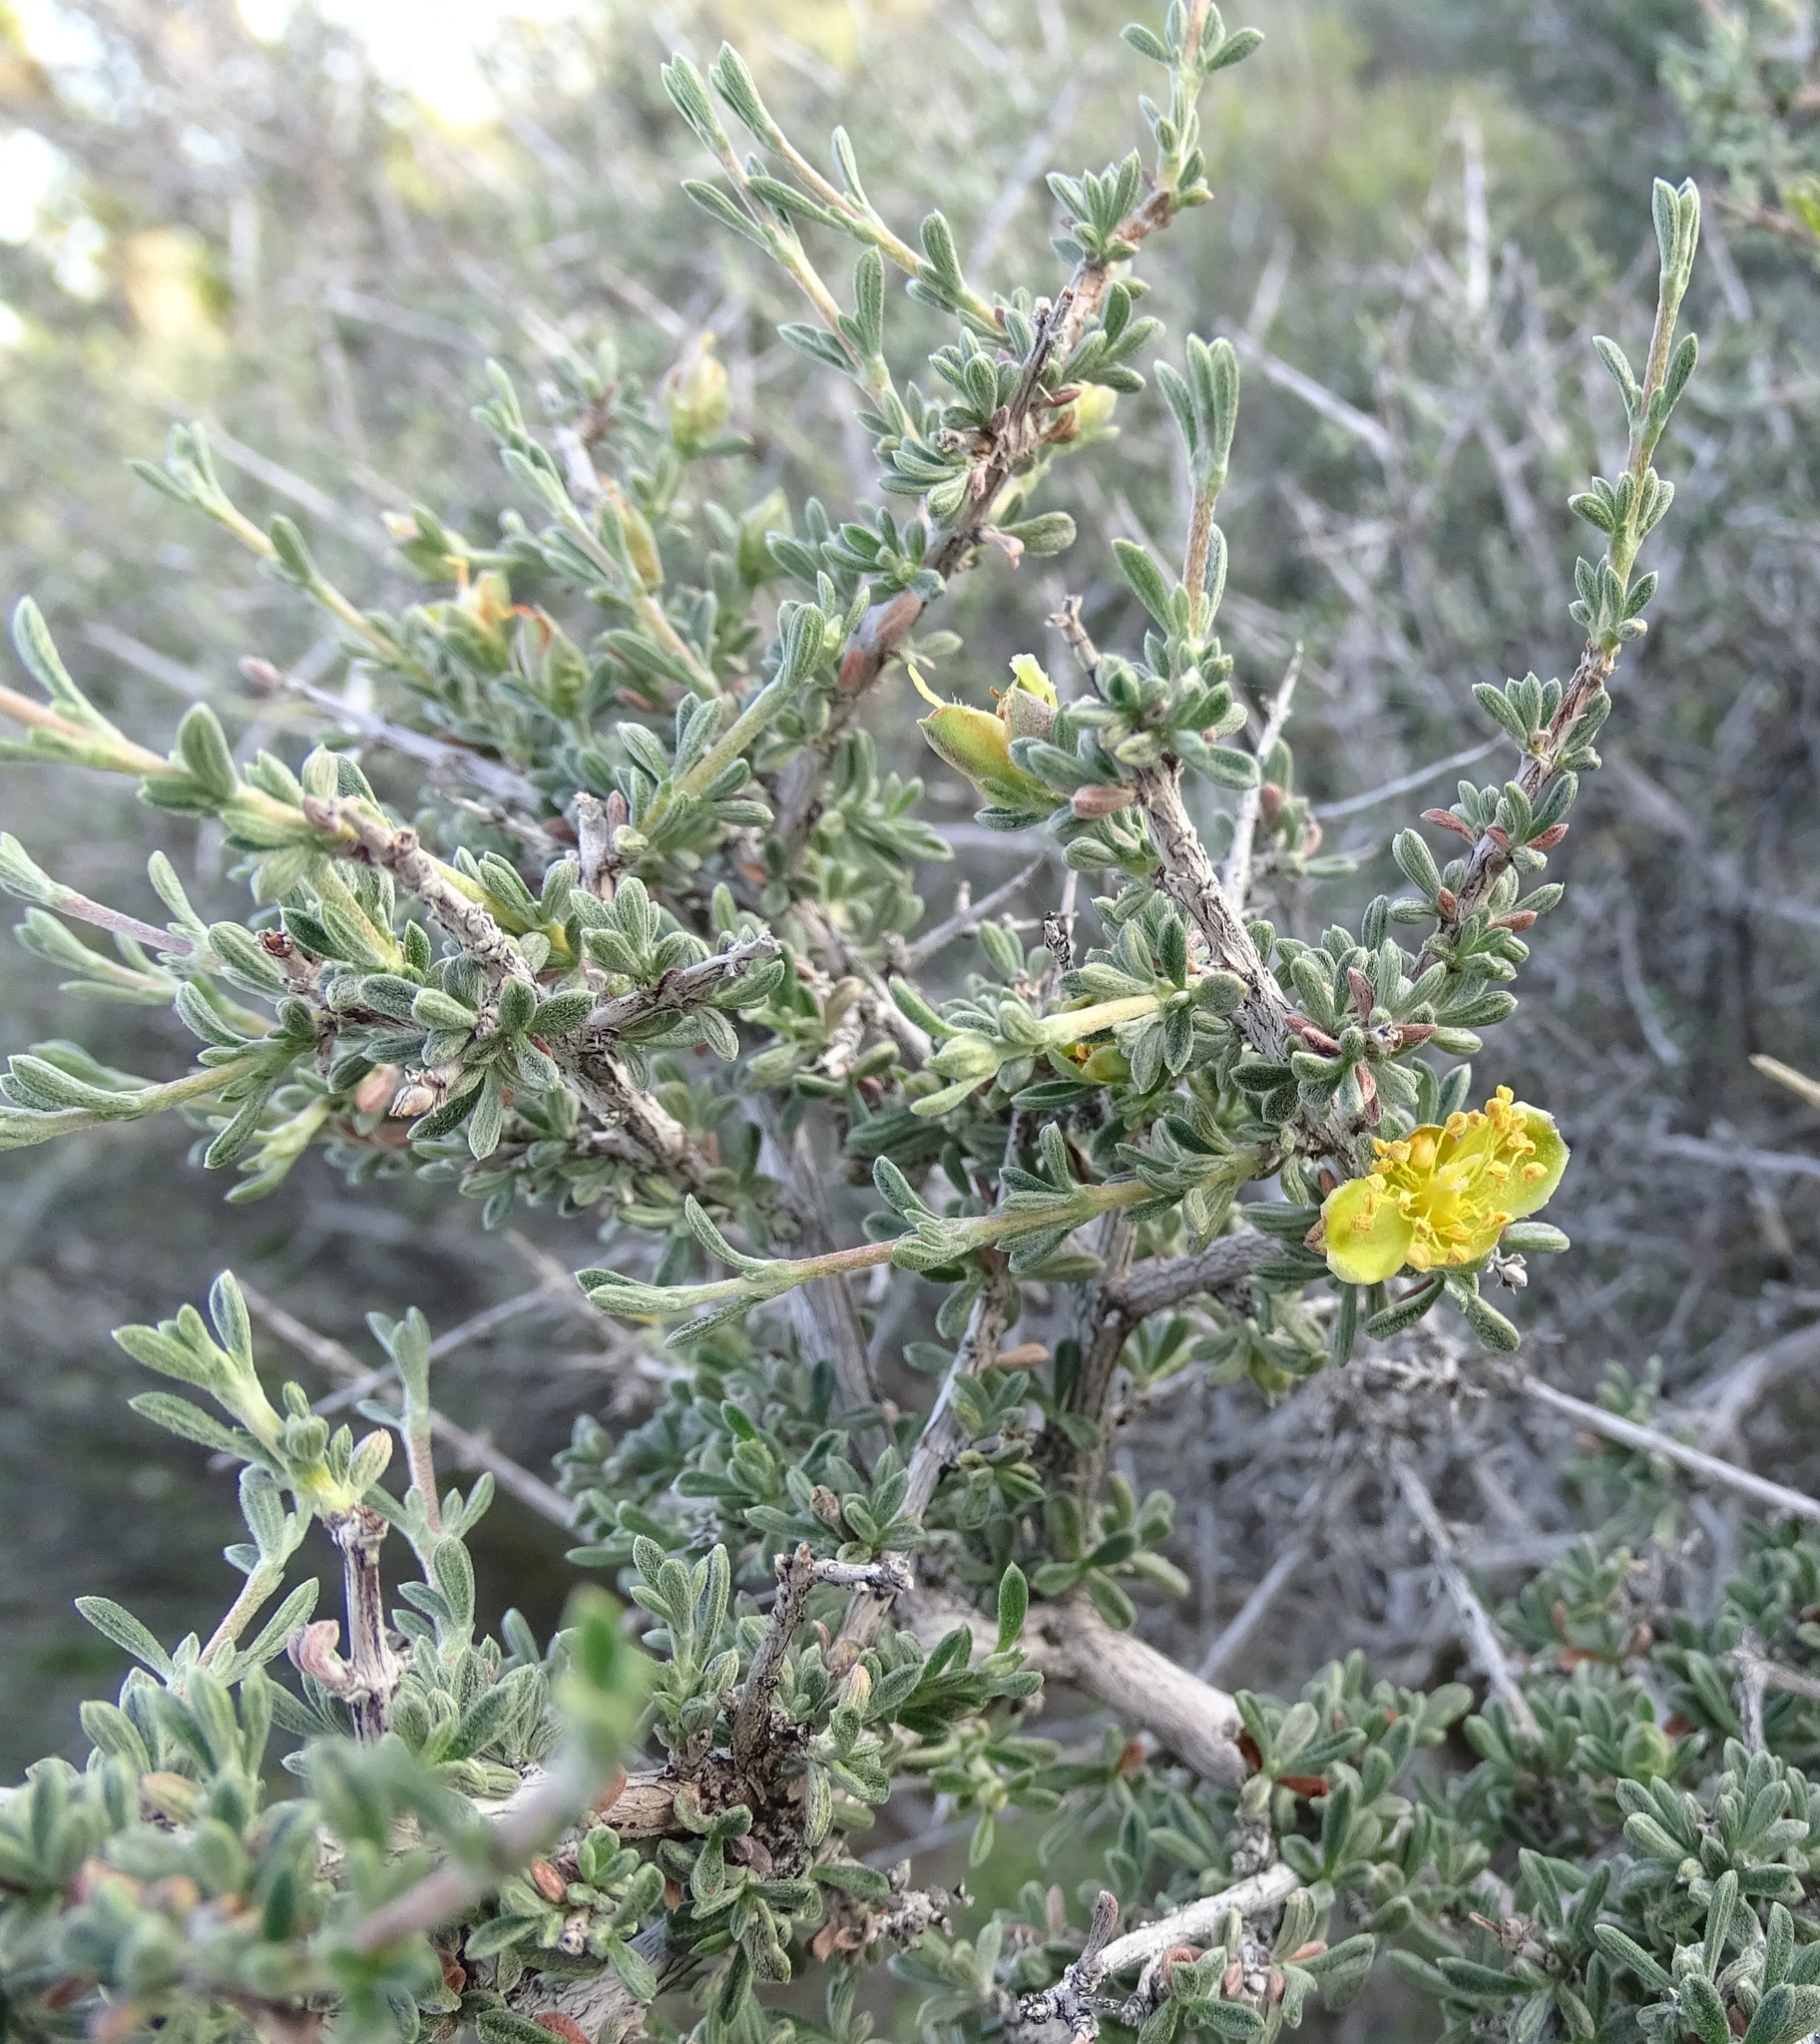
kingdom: Plantae
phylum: Tracheophyta
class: Magnoliopsida
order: Rosales
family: Rosaceae
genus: Coleogyne
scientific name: Coleogyne ramosissima
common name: Blackbrush
